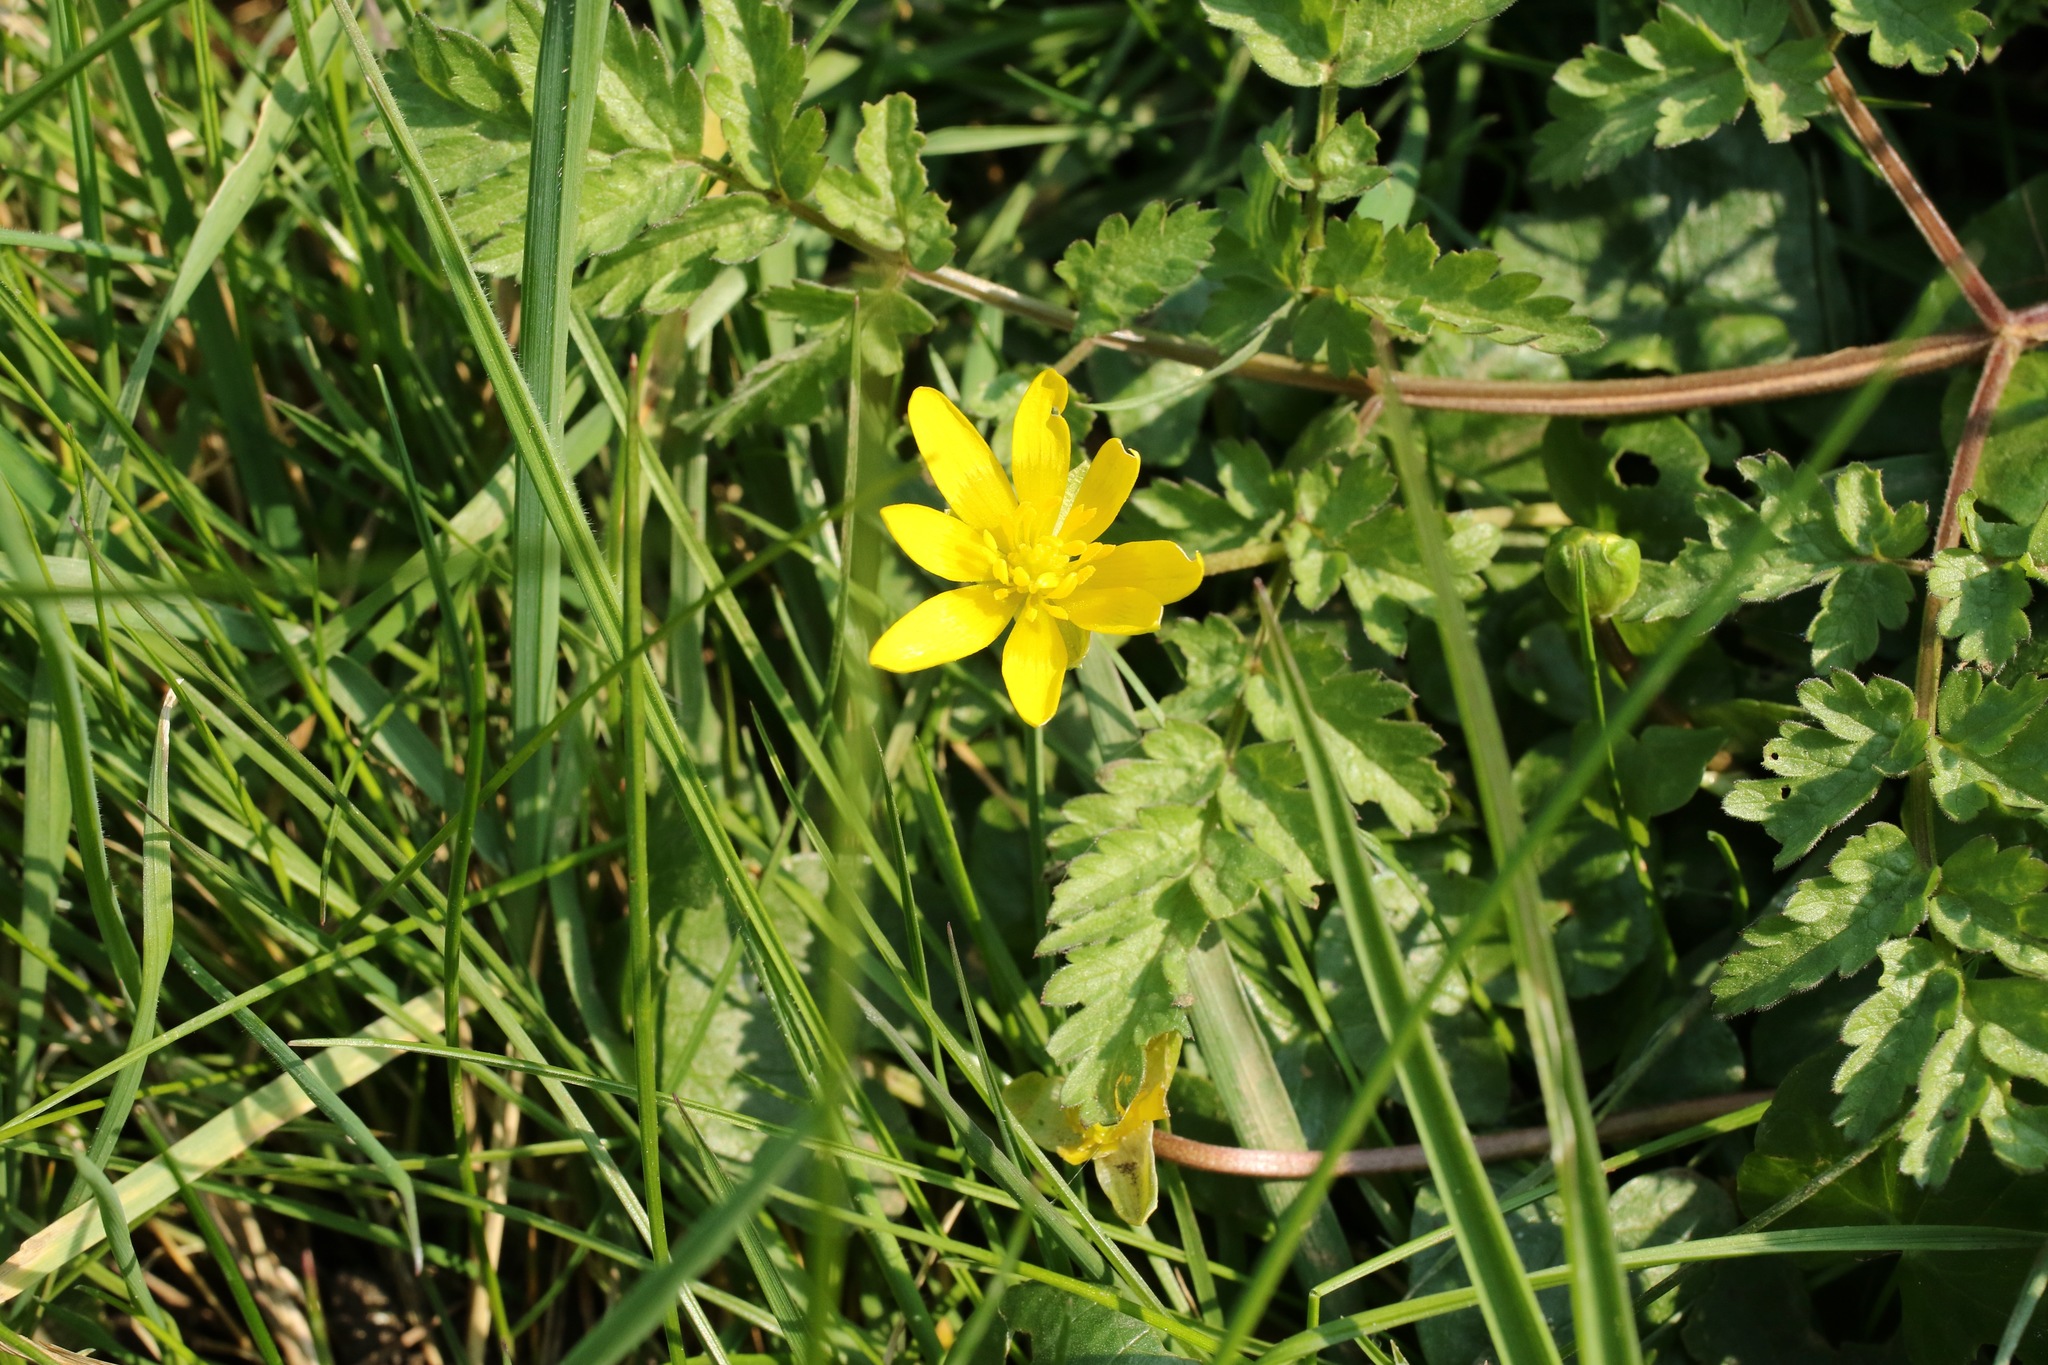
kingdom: Plantae
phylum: Tracheophyta
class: Magnoliopsida
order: Ranunculales
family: Ranunculaceae
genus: Ficaria
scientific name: Ficaria verna
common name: Lesser celandine
